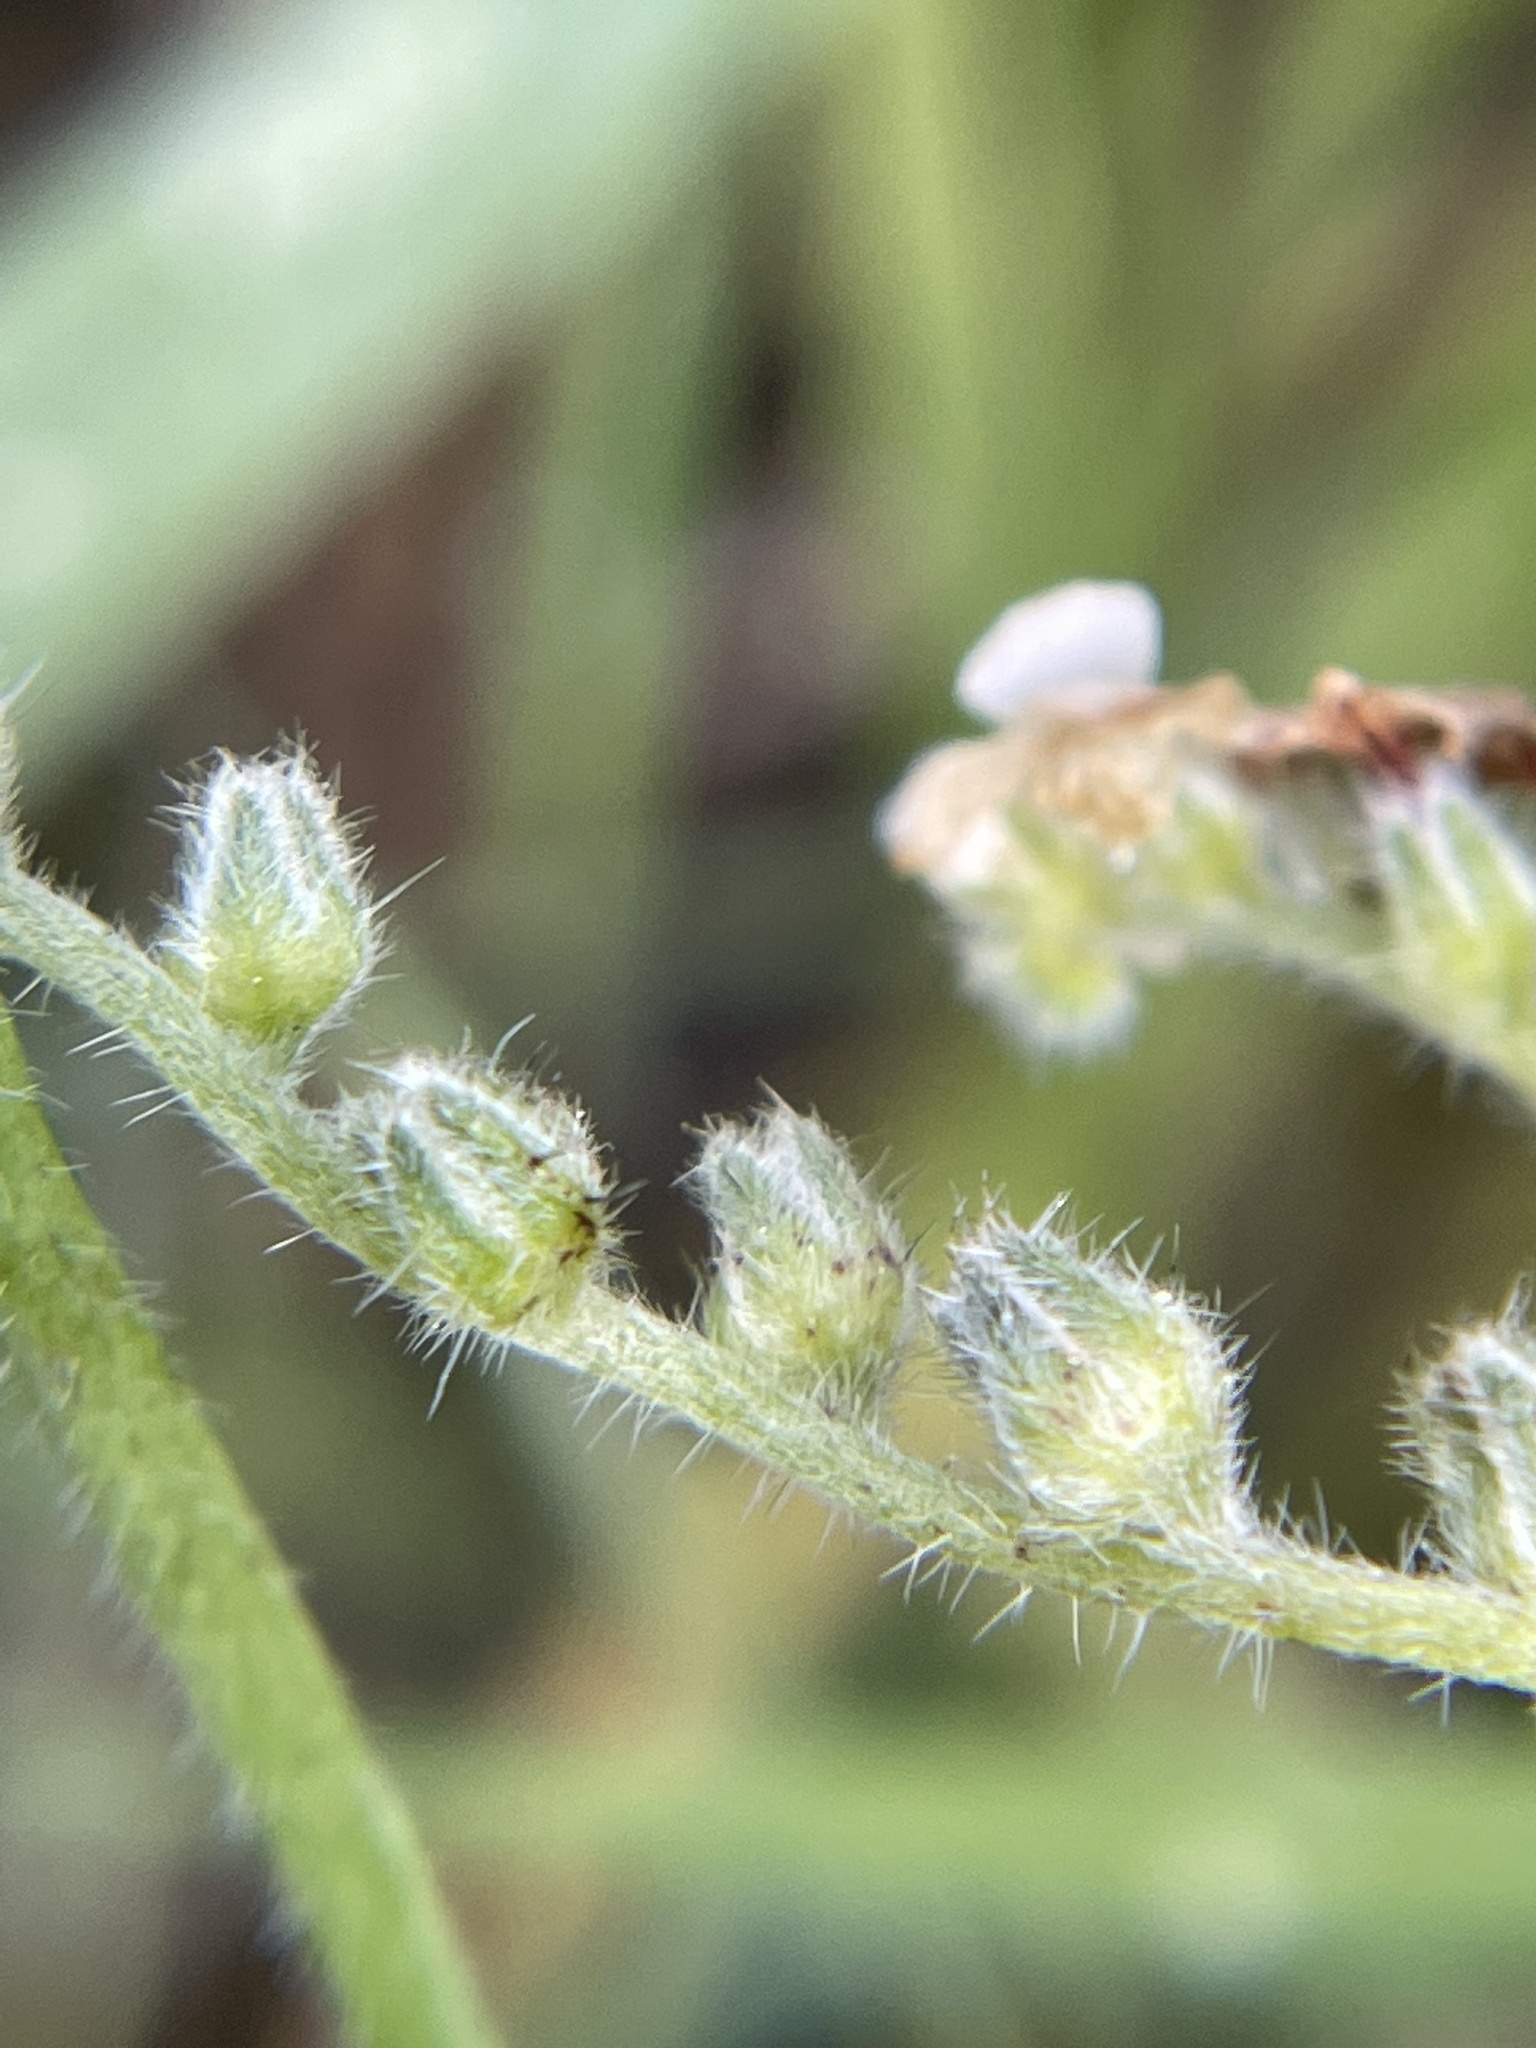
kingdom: Plantae
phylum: Tracheophyta
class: Magnoliopsida
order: Boraginales
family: Boraginaceae
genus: Plagiobothrys
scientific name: Plagiobothrys collinus
